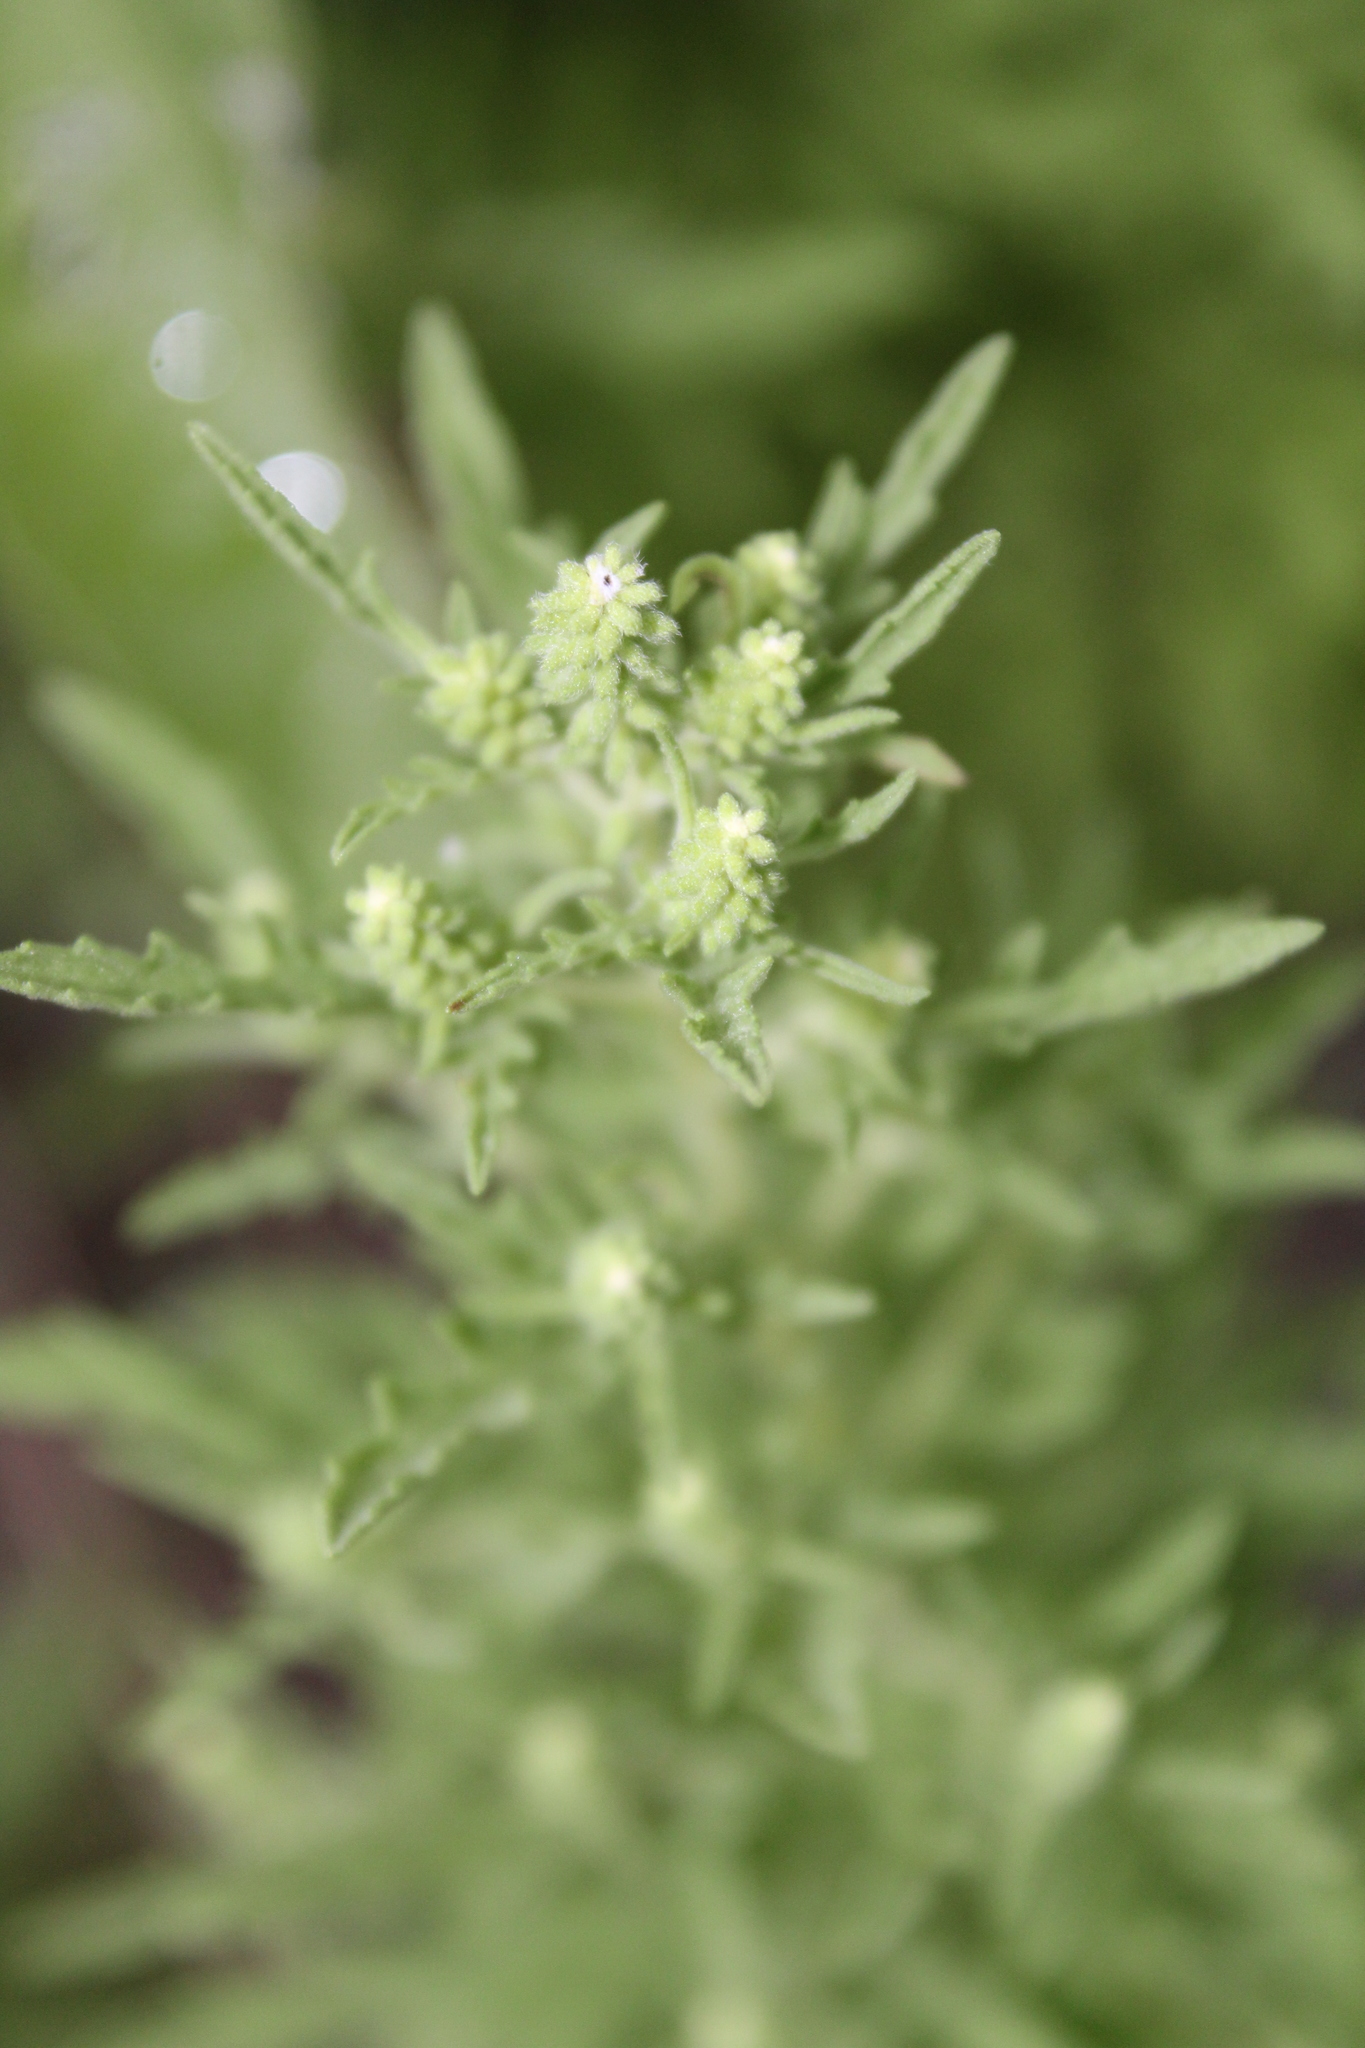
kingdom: Plantae
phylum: Tracheophyta
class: Magnoliopsida
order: Asterales
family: Asteraceae
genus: Ambrosia
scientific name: Ambrosia psilostachya
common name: Perennial ragweed
